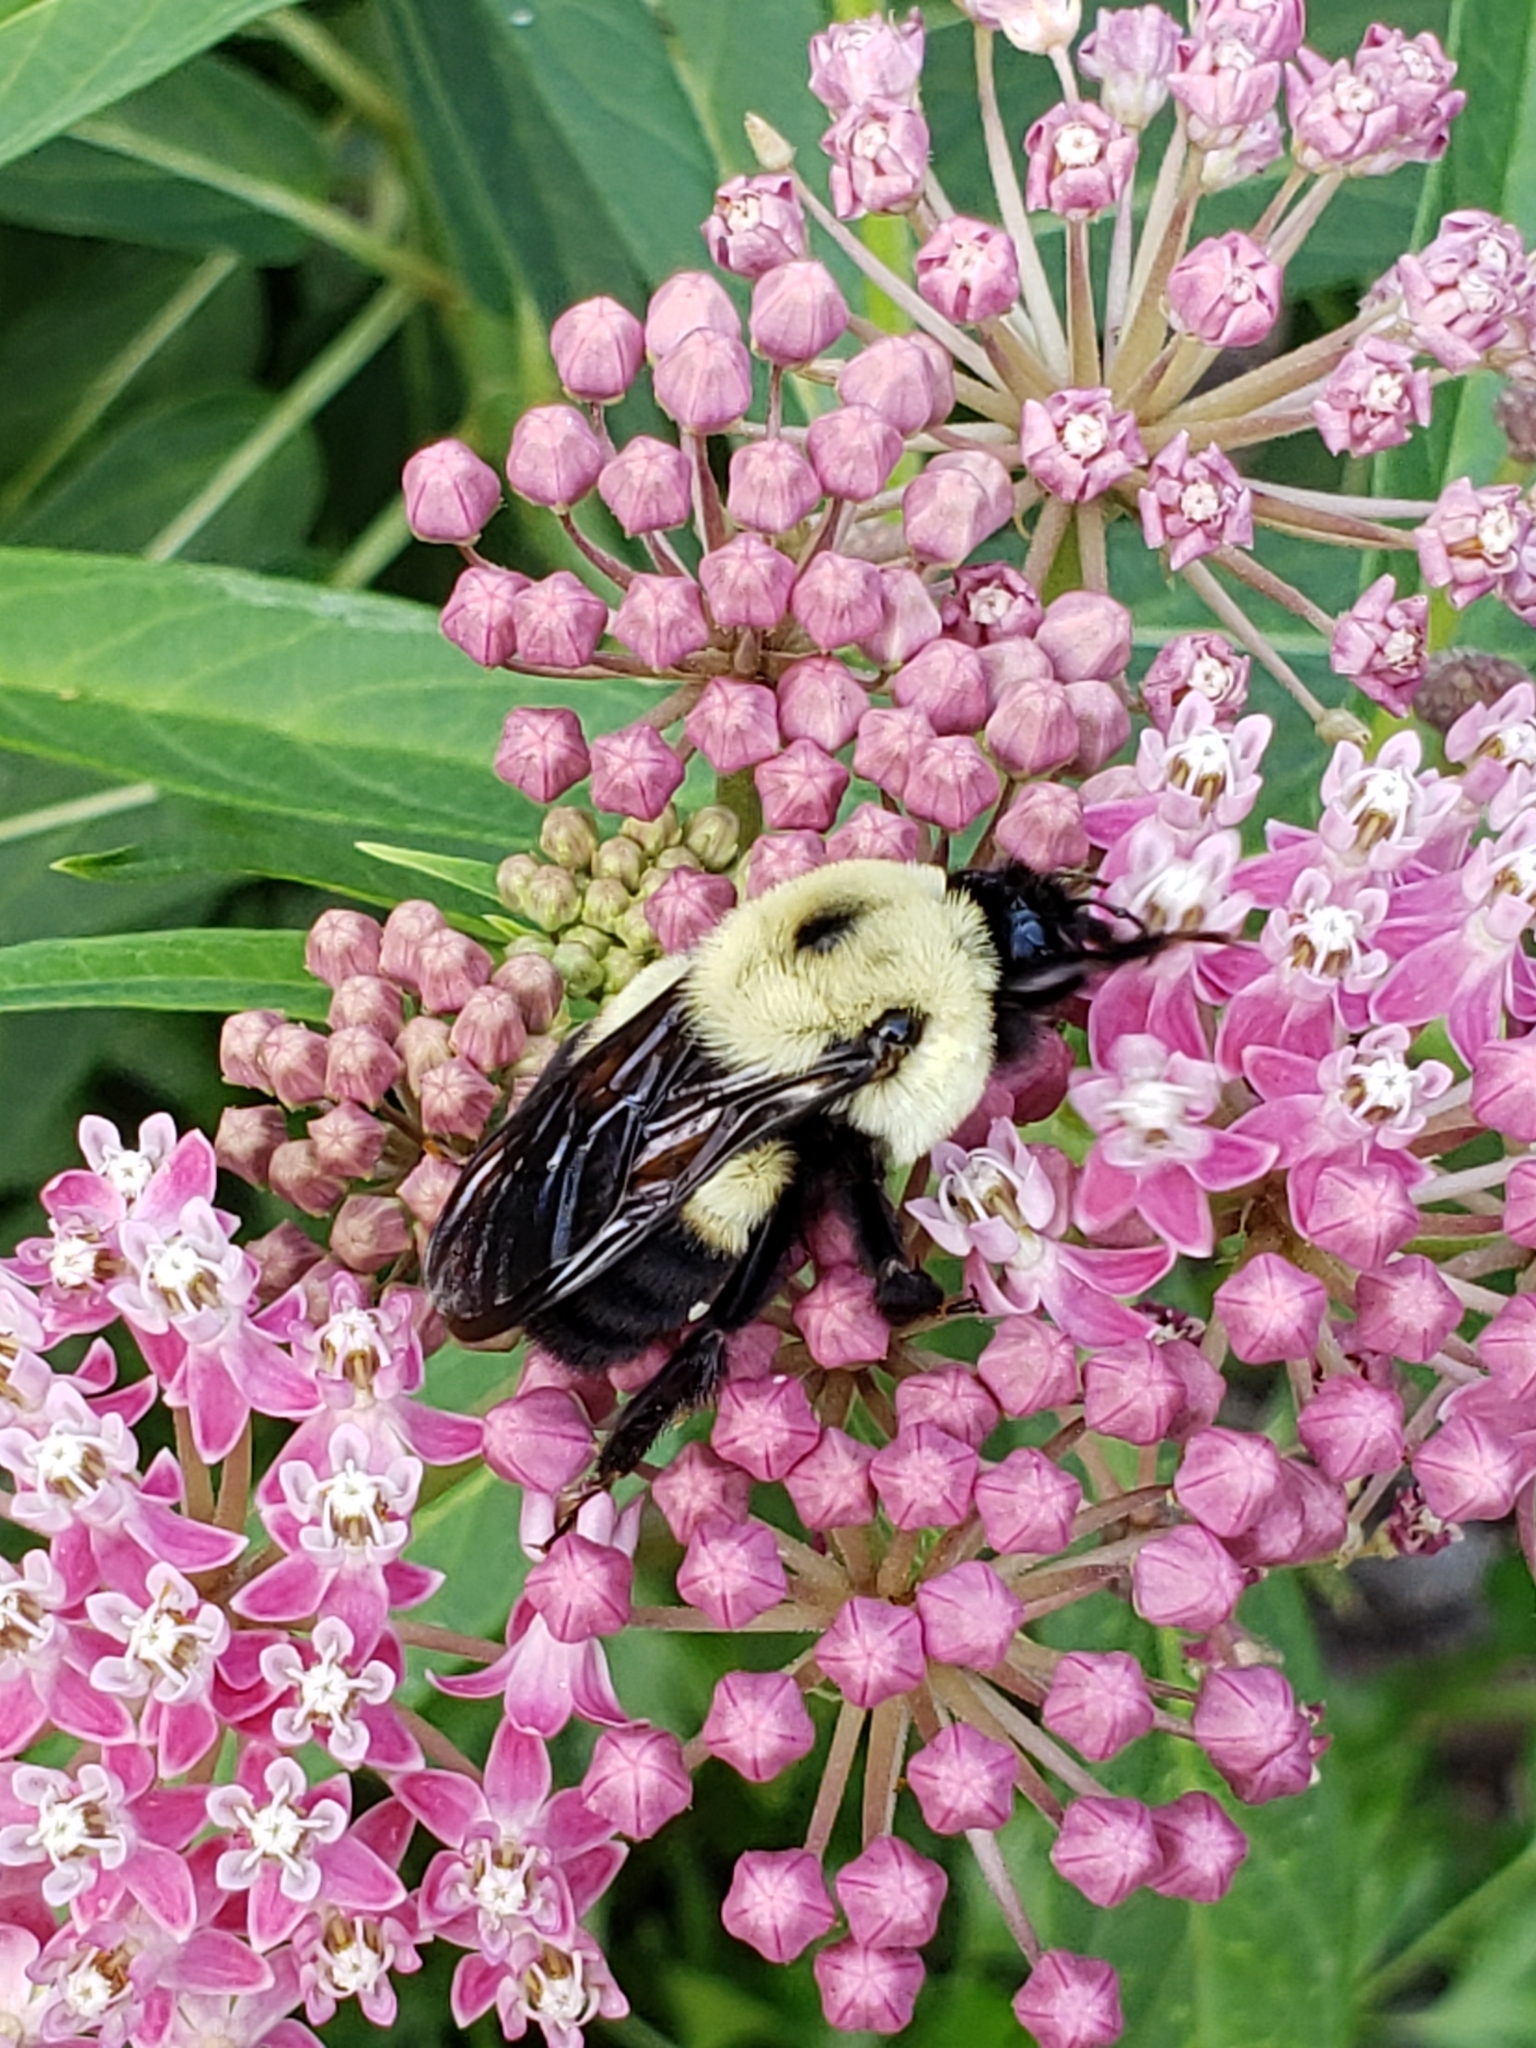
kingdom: Animalia
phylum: Arthropoda
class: Insecta
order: Hymenoptera
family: Apidae
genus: Bombus
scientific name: Bombus griseocollis
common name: Brown-belted bumble bee
